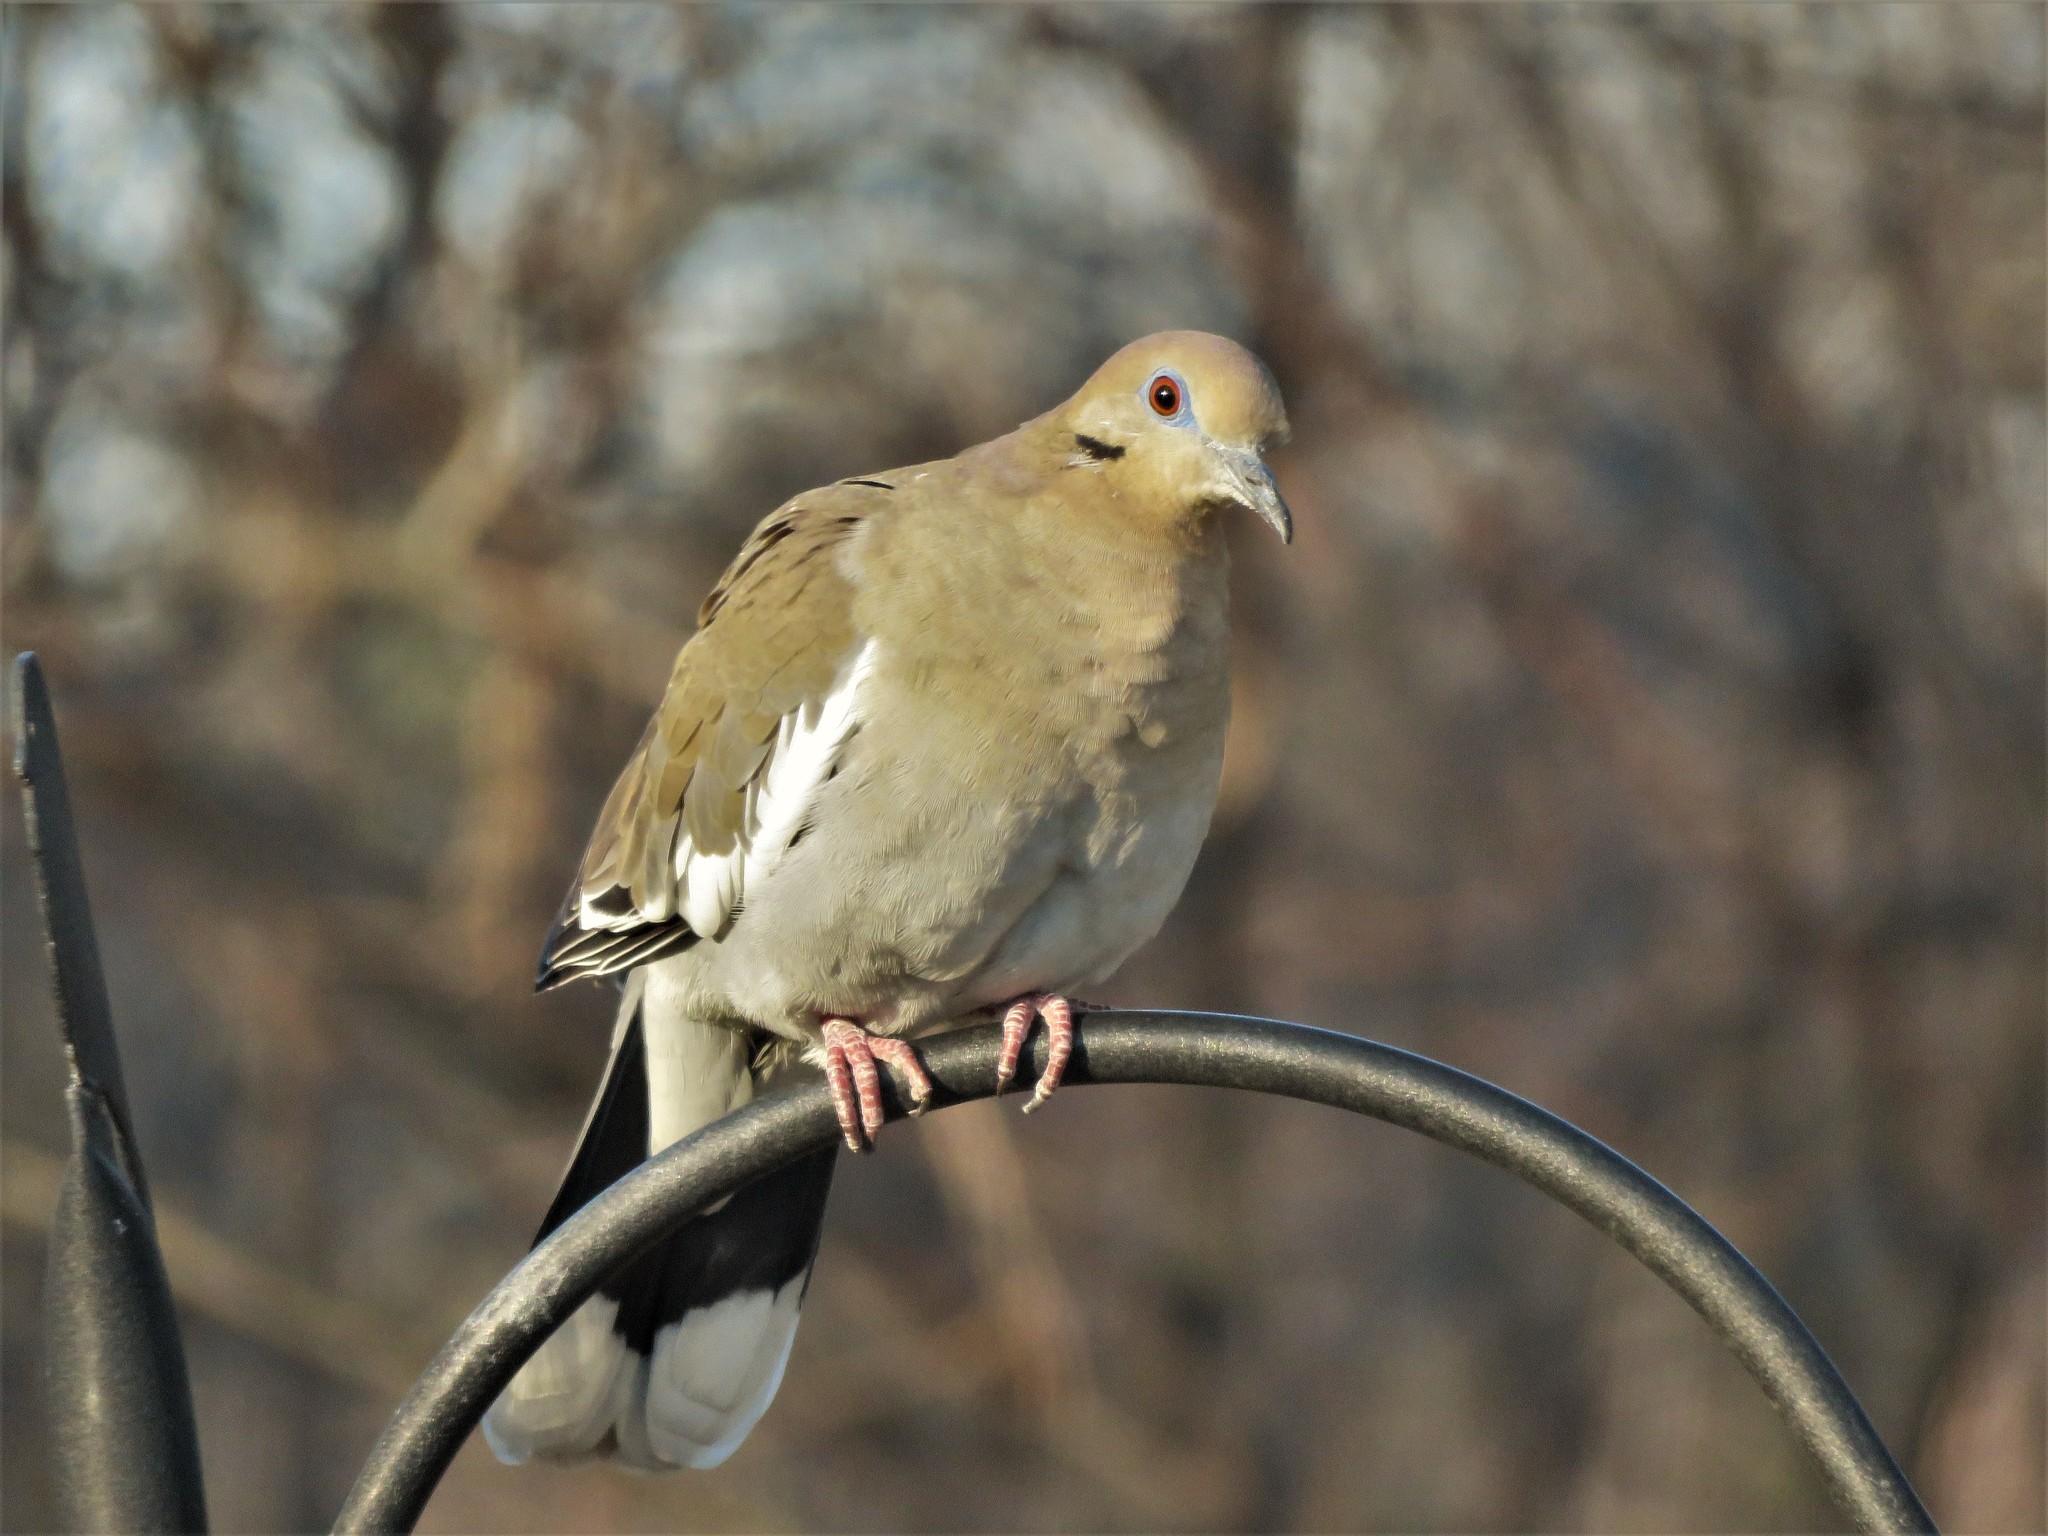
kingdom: Animalia
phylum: Chordata
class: Aves
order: Columbiformes
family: Columbidae
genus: Zenaida
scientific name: Zenaida asiatica
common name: White-winged dove
